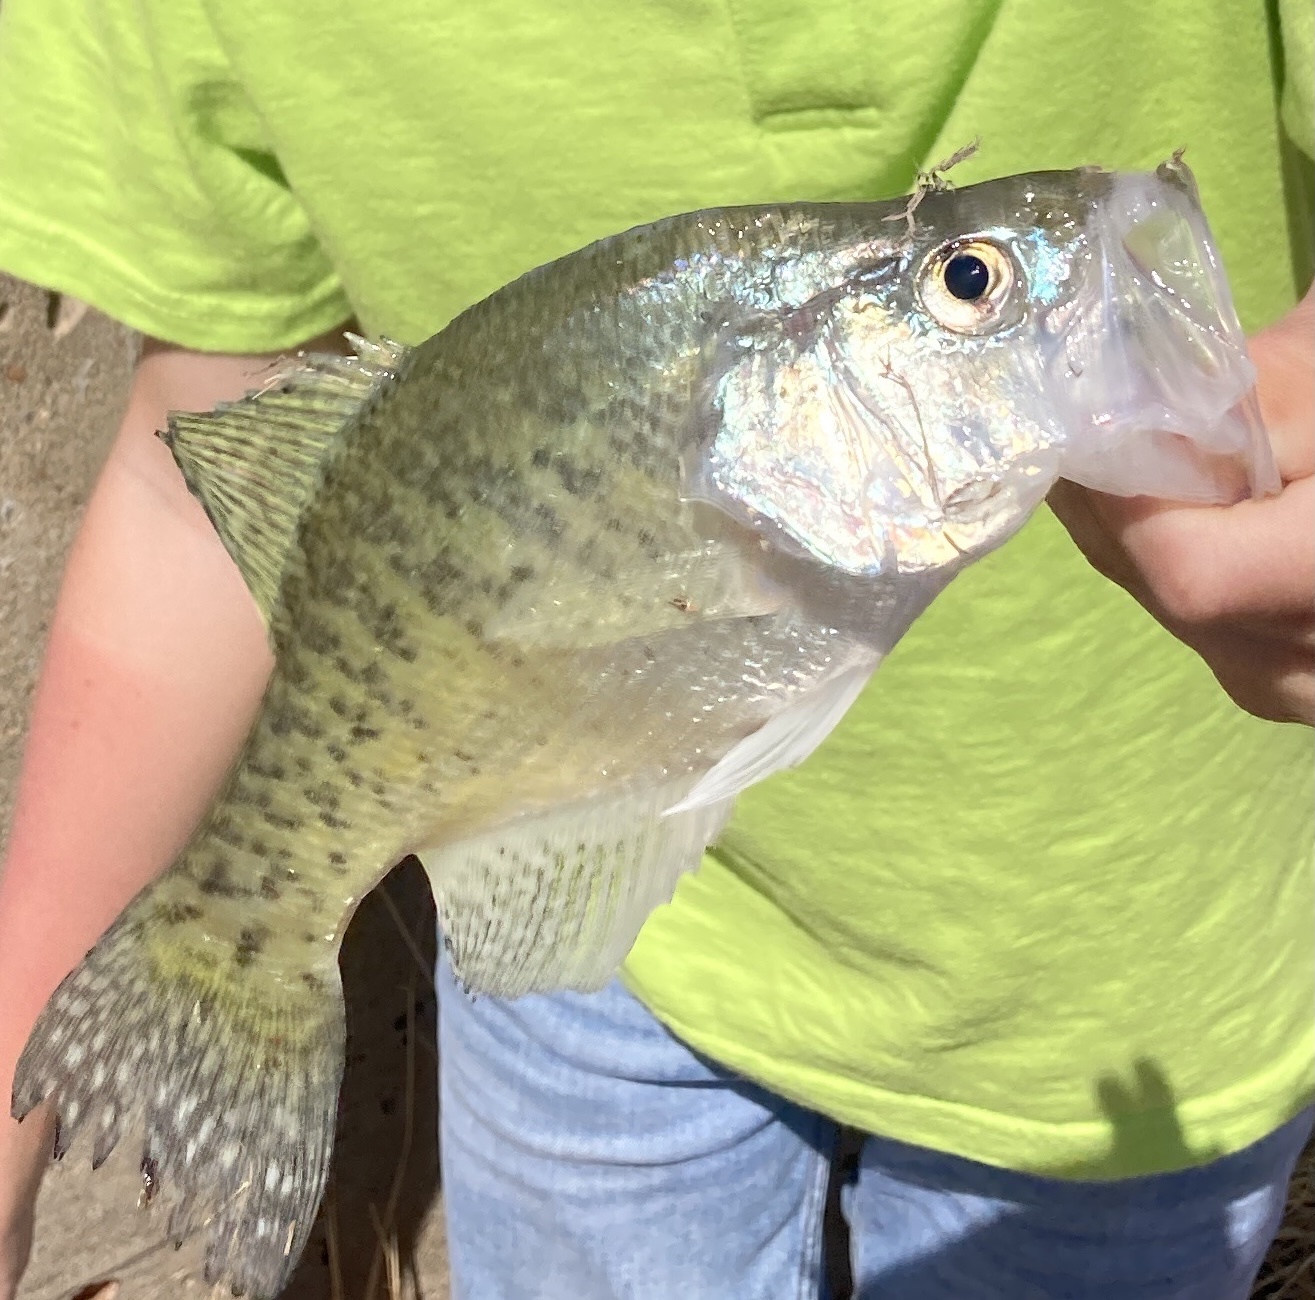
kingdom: Animalia
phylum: Chordata
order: Perciformes
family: Centrarchidae
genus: Pomoxis
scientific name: Pomoxis annularis
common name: White crappie
